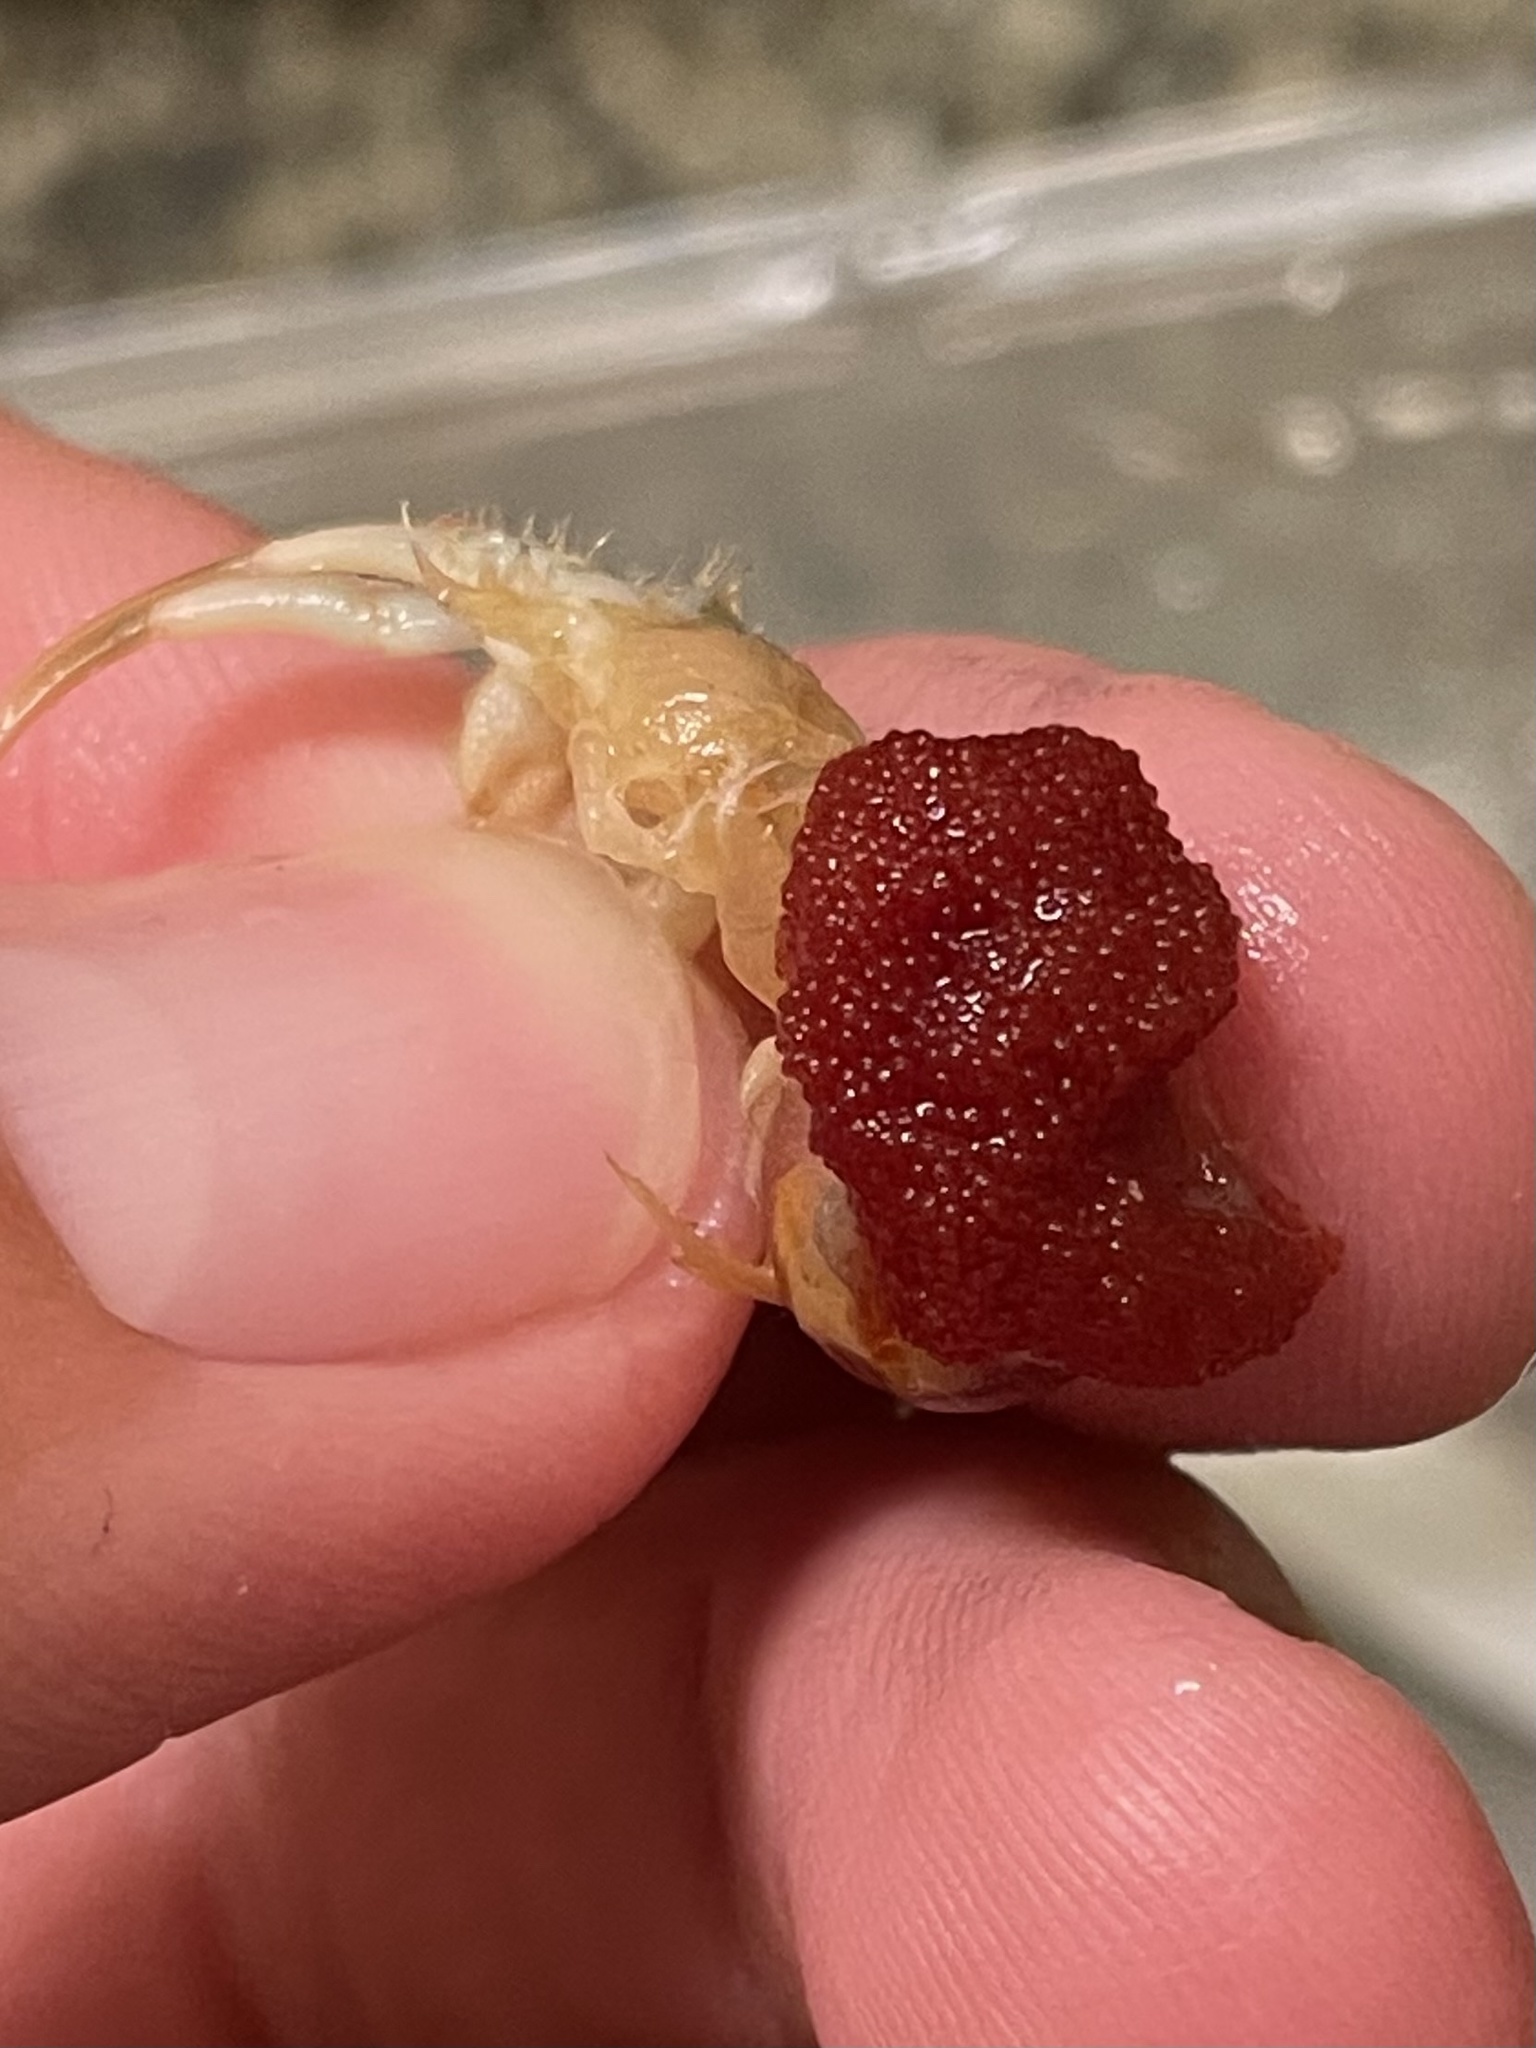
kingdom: Animalia
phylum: Arthropoda
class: Malacostraca
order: Decapoda
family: Diogenidae
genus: Isocheles
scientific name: Isocheles wurdemanni
